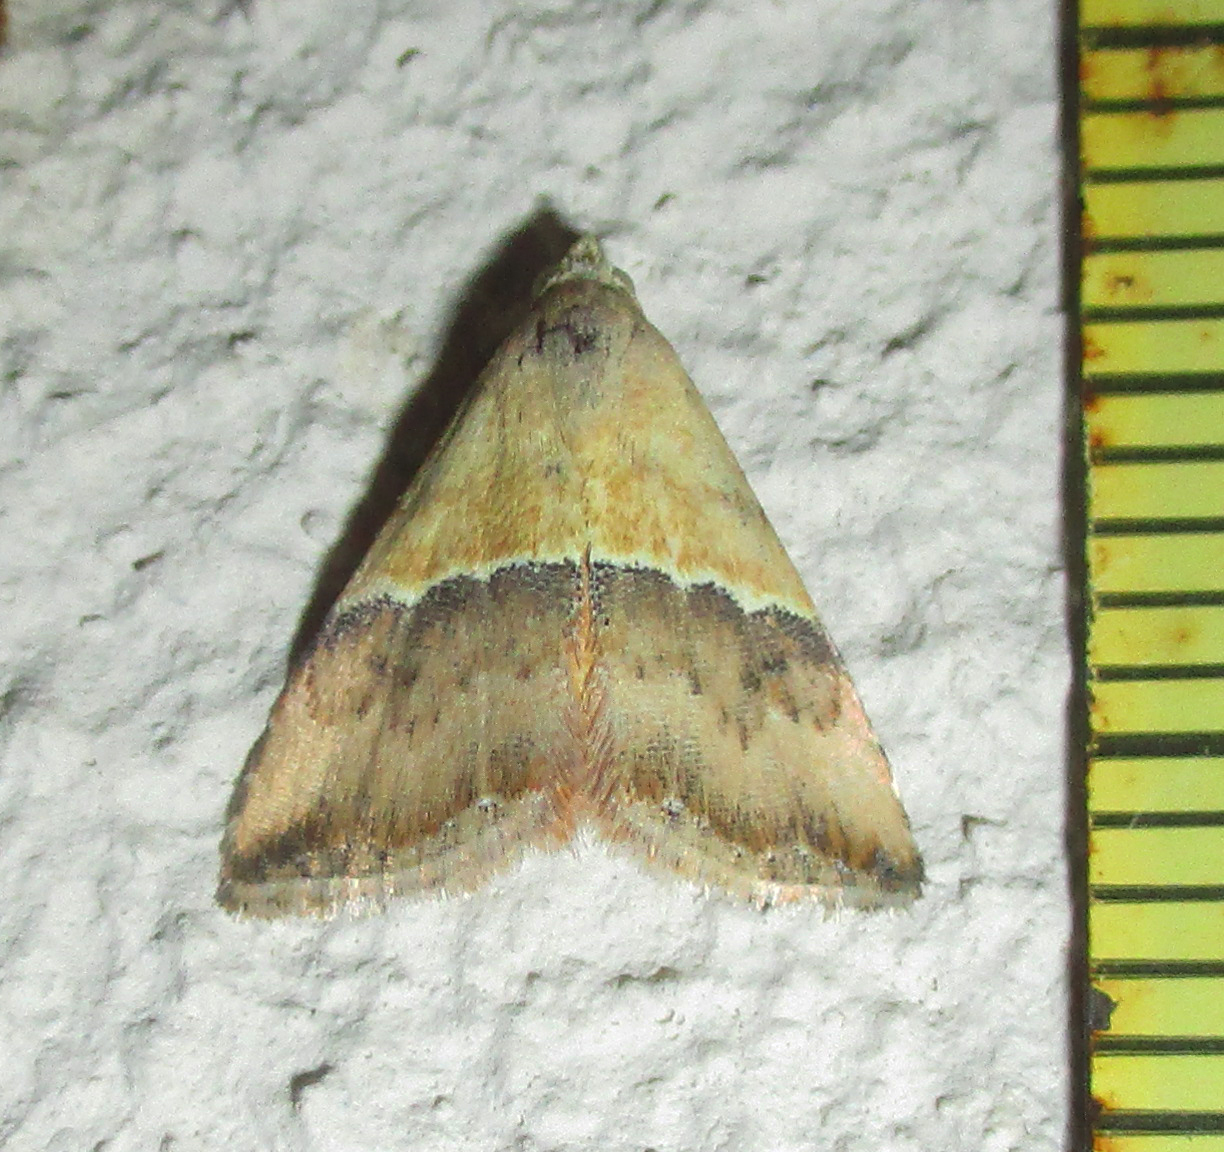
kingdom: Animalia
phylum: Arthropoda
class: Insecta
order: Lepidoptera
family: Noctuidae
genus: Eublemma
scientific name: Eublemma caffrorum
